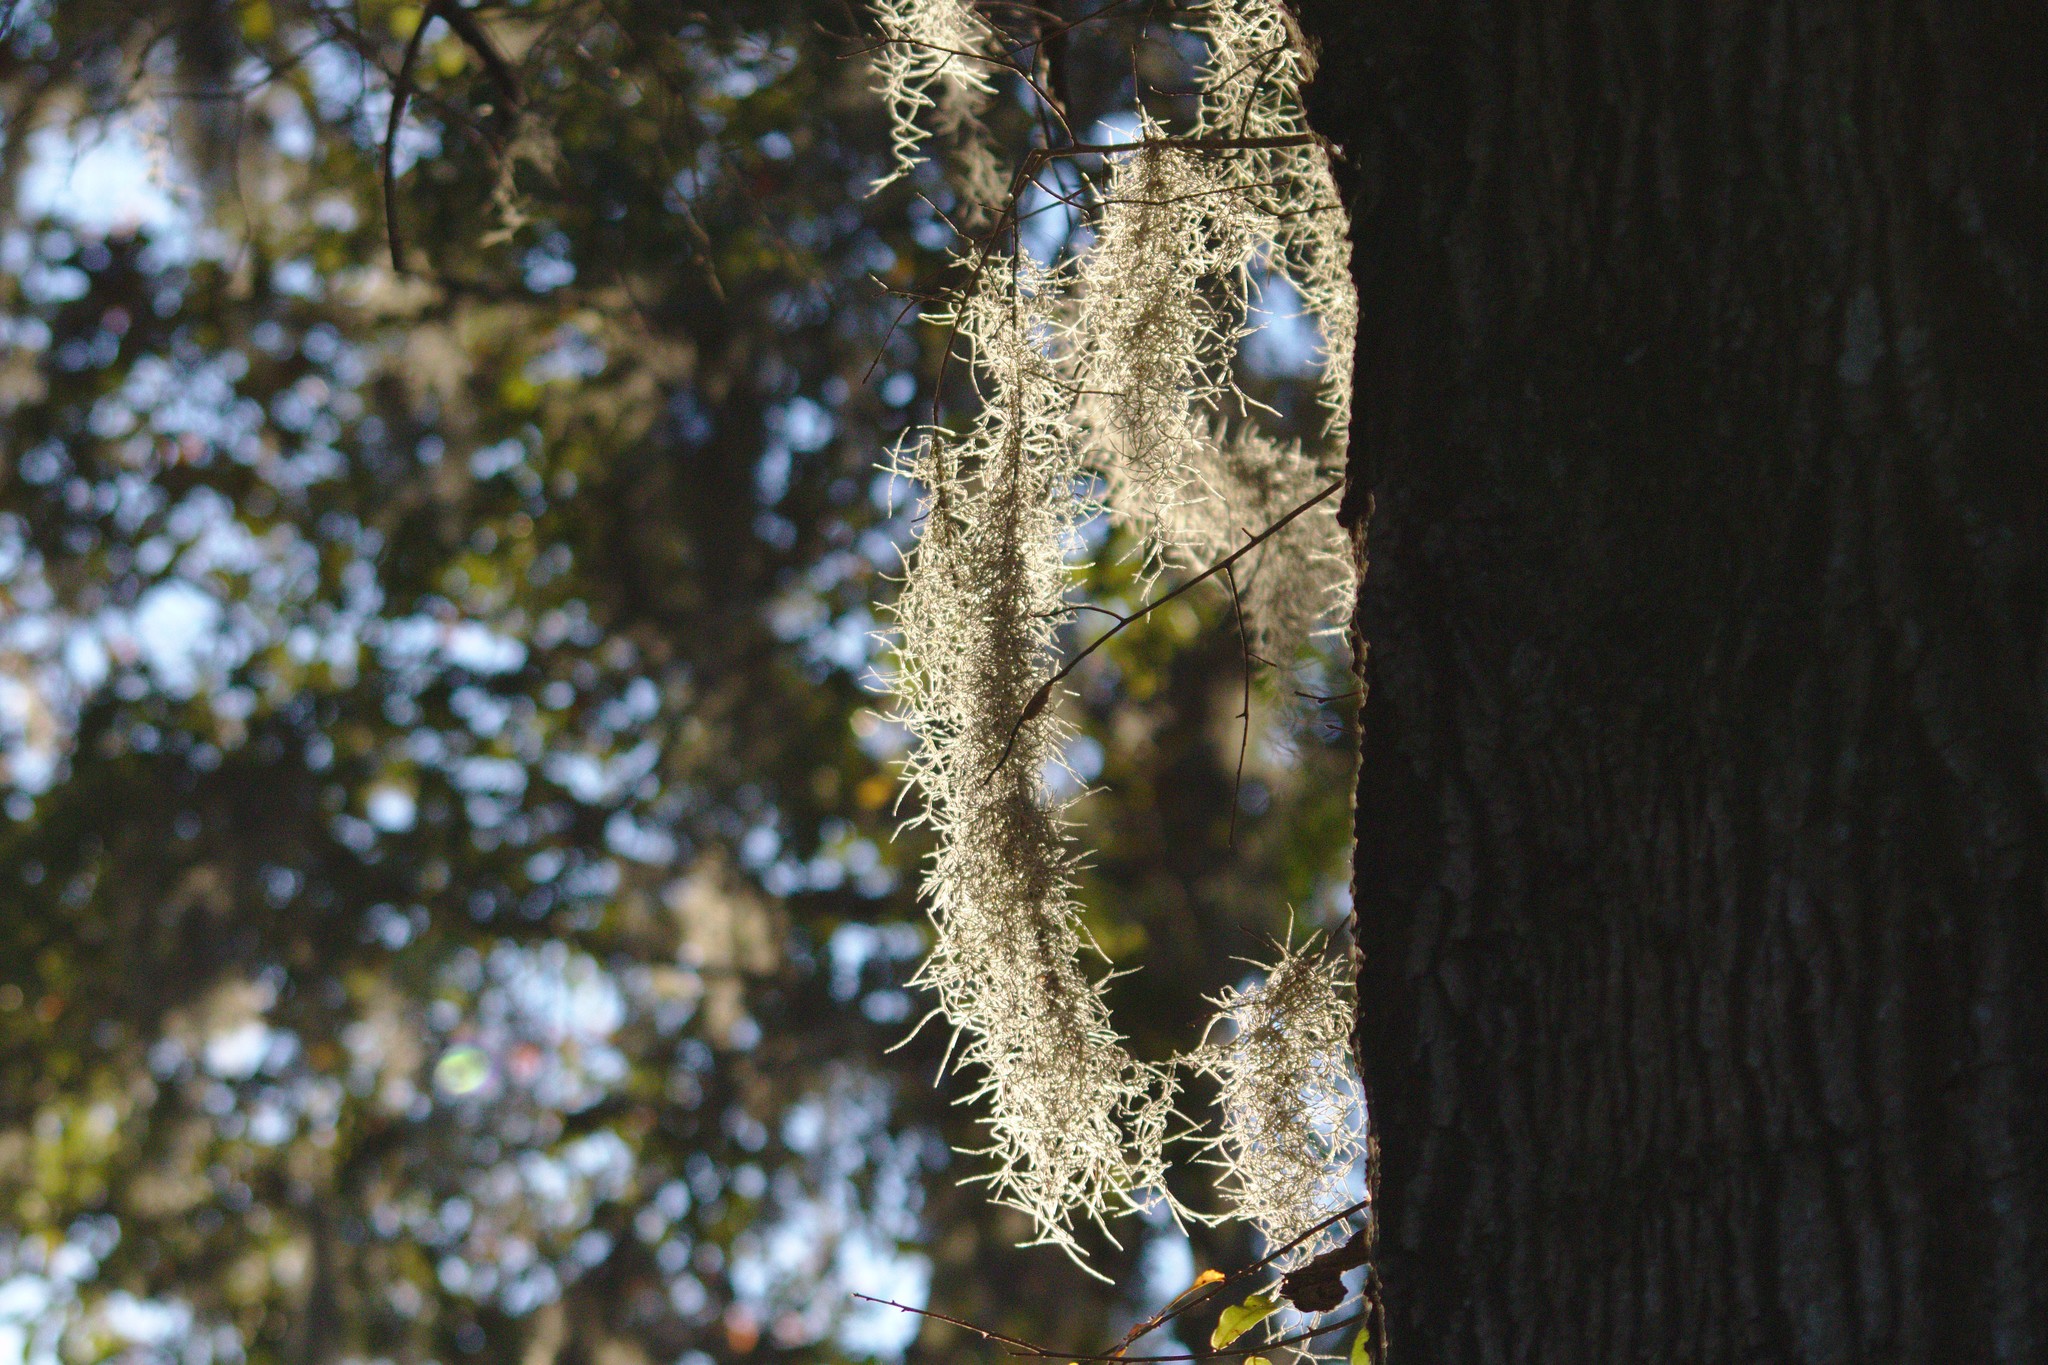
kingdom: Plantae
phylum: Tracheophyta
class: Liliopsida
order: Poales
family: Bromeliaceae
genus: Tillandsia
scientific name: Tillandsia usneoides
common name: Spanish moss
